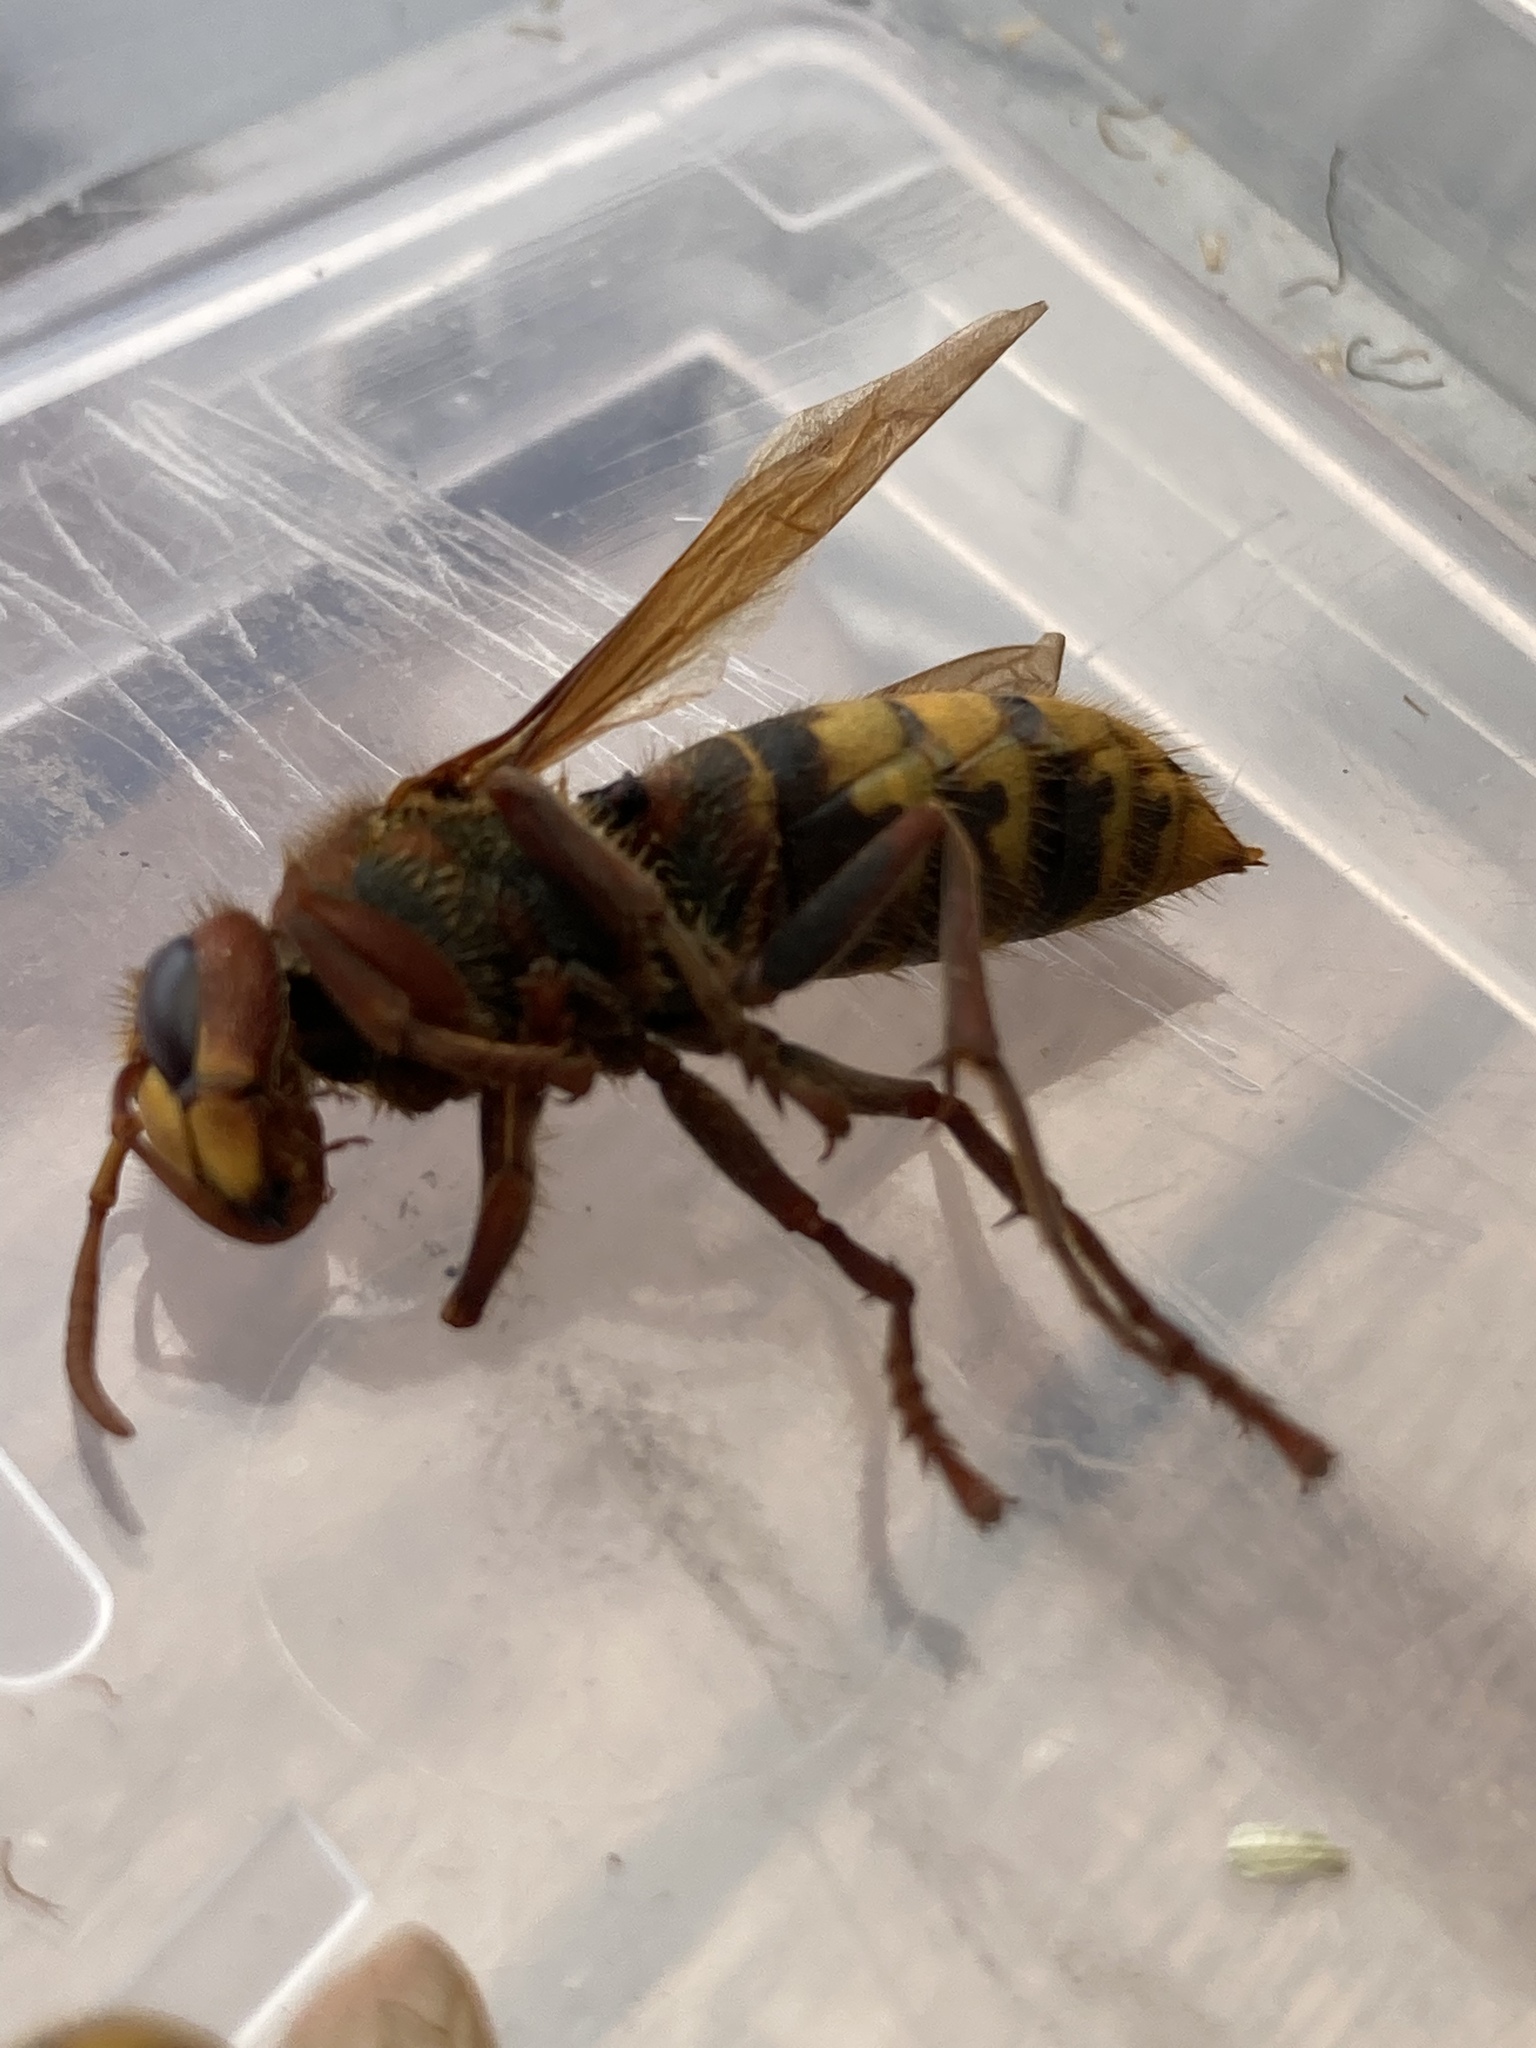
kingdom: Animalia
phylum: Arthropoda
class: Insecta
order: Hymenoptera
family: Vespidae
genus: Vespa
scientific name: Vespa crabro
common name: Hornet
